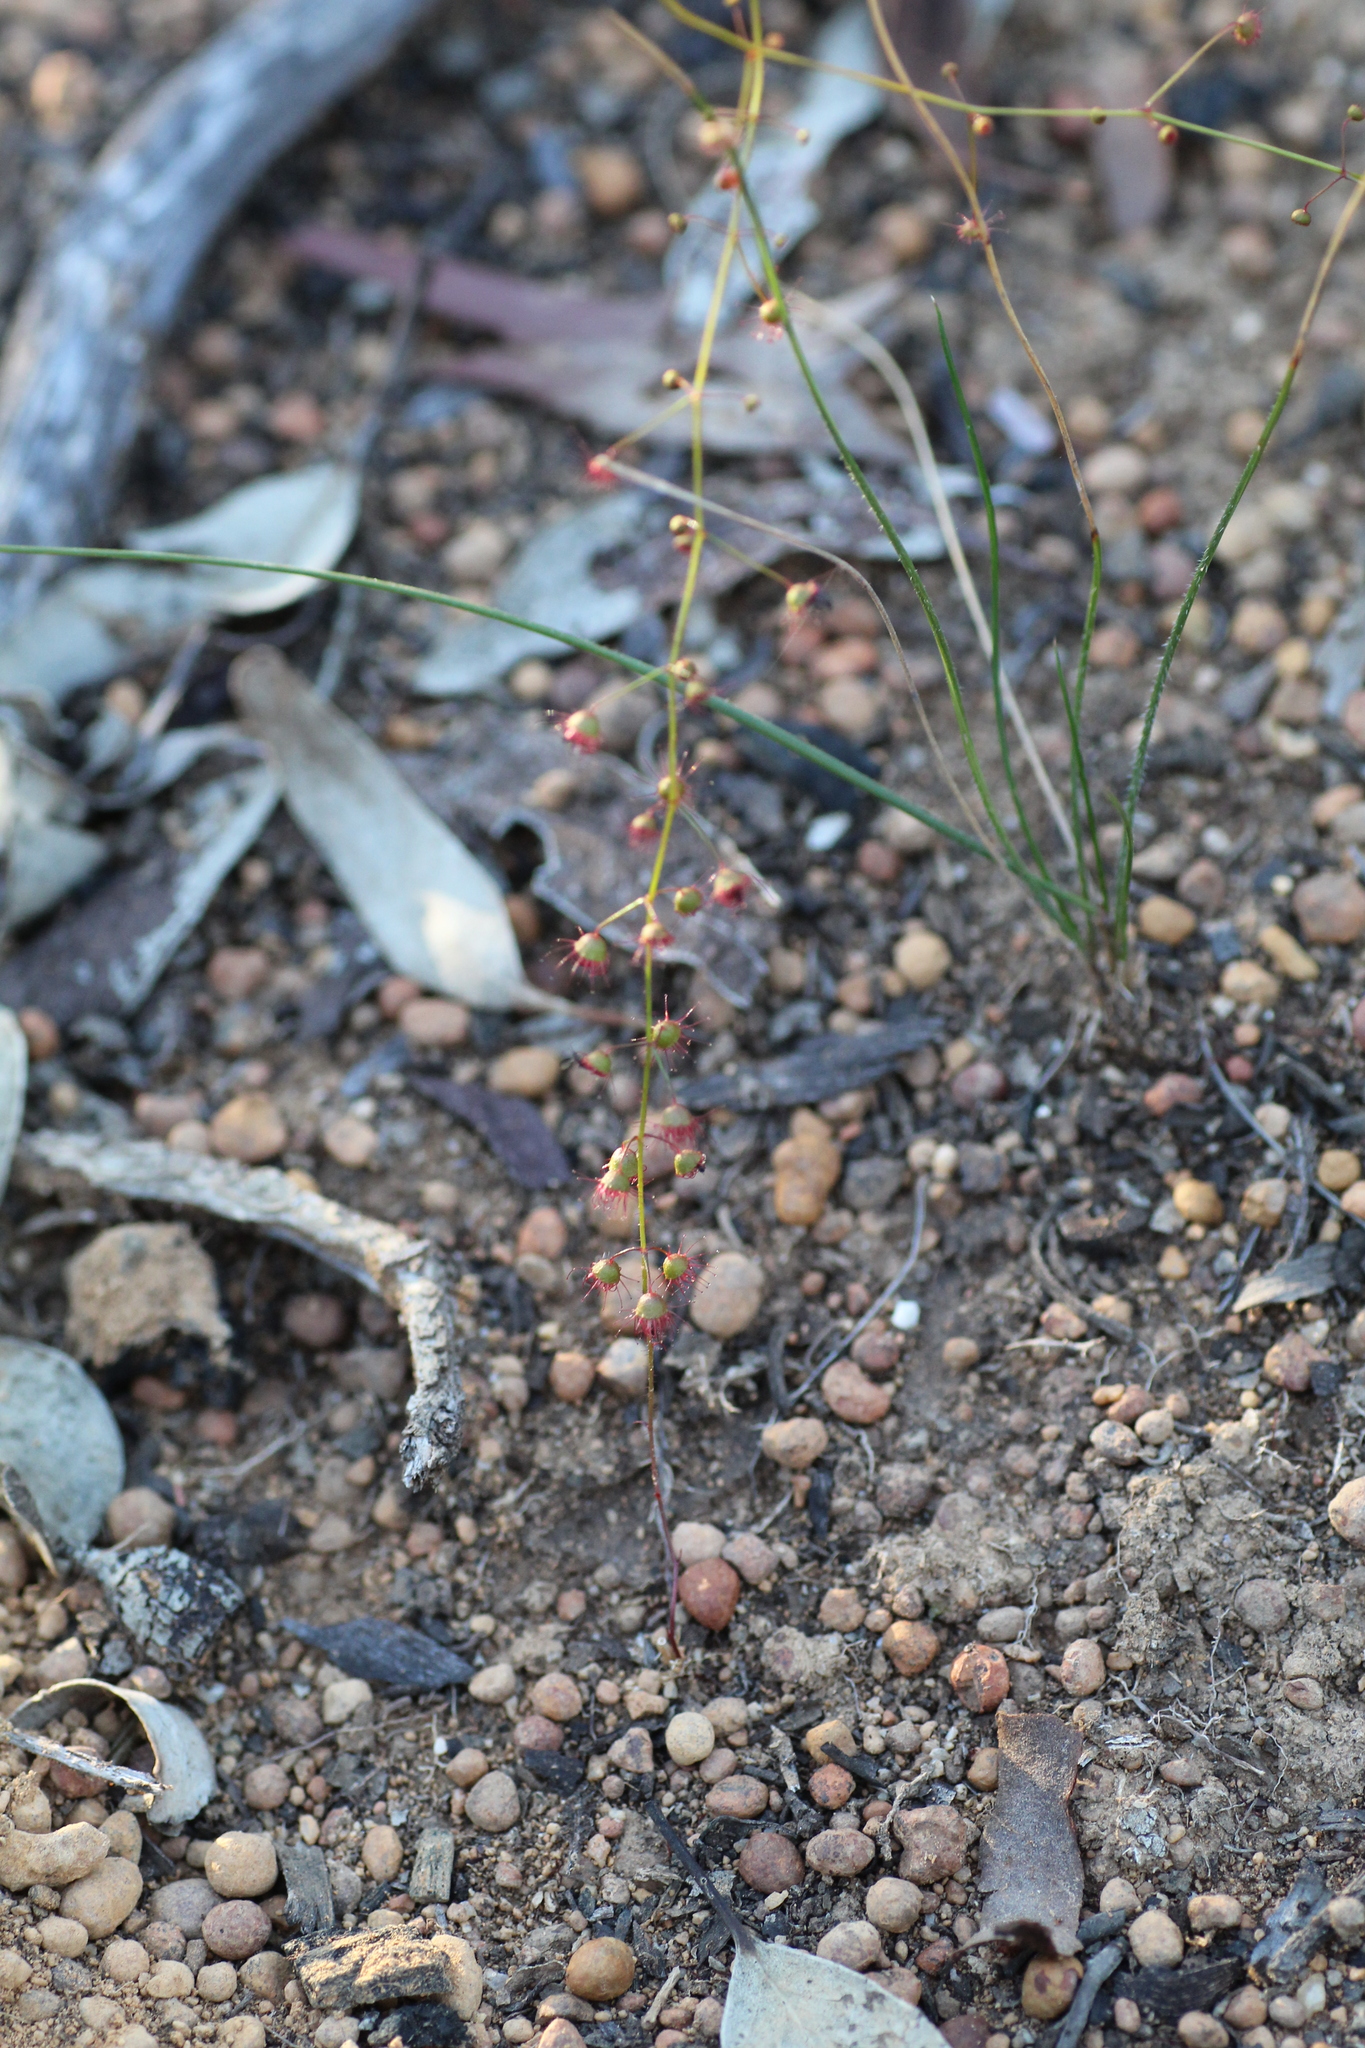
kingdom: Plantae
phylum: Tracheophyta
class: Magnoliopsida
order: Caryophyllales
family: Droseraceae
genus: Drosera
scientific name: Drosera macrantha
